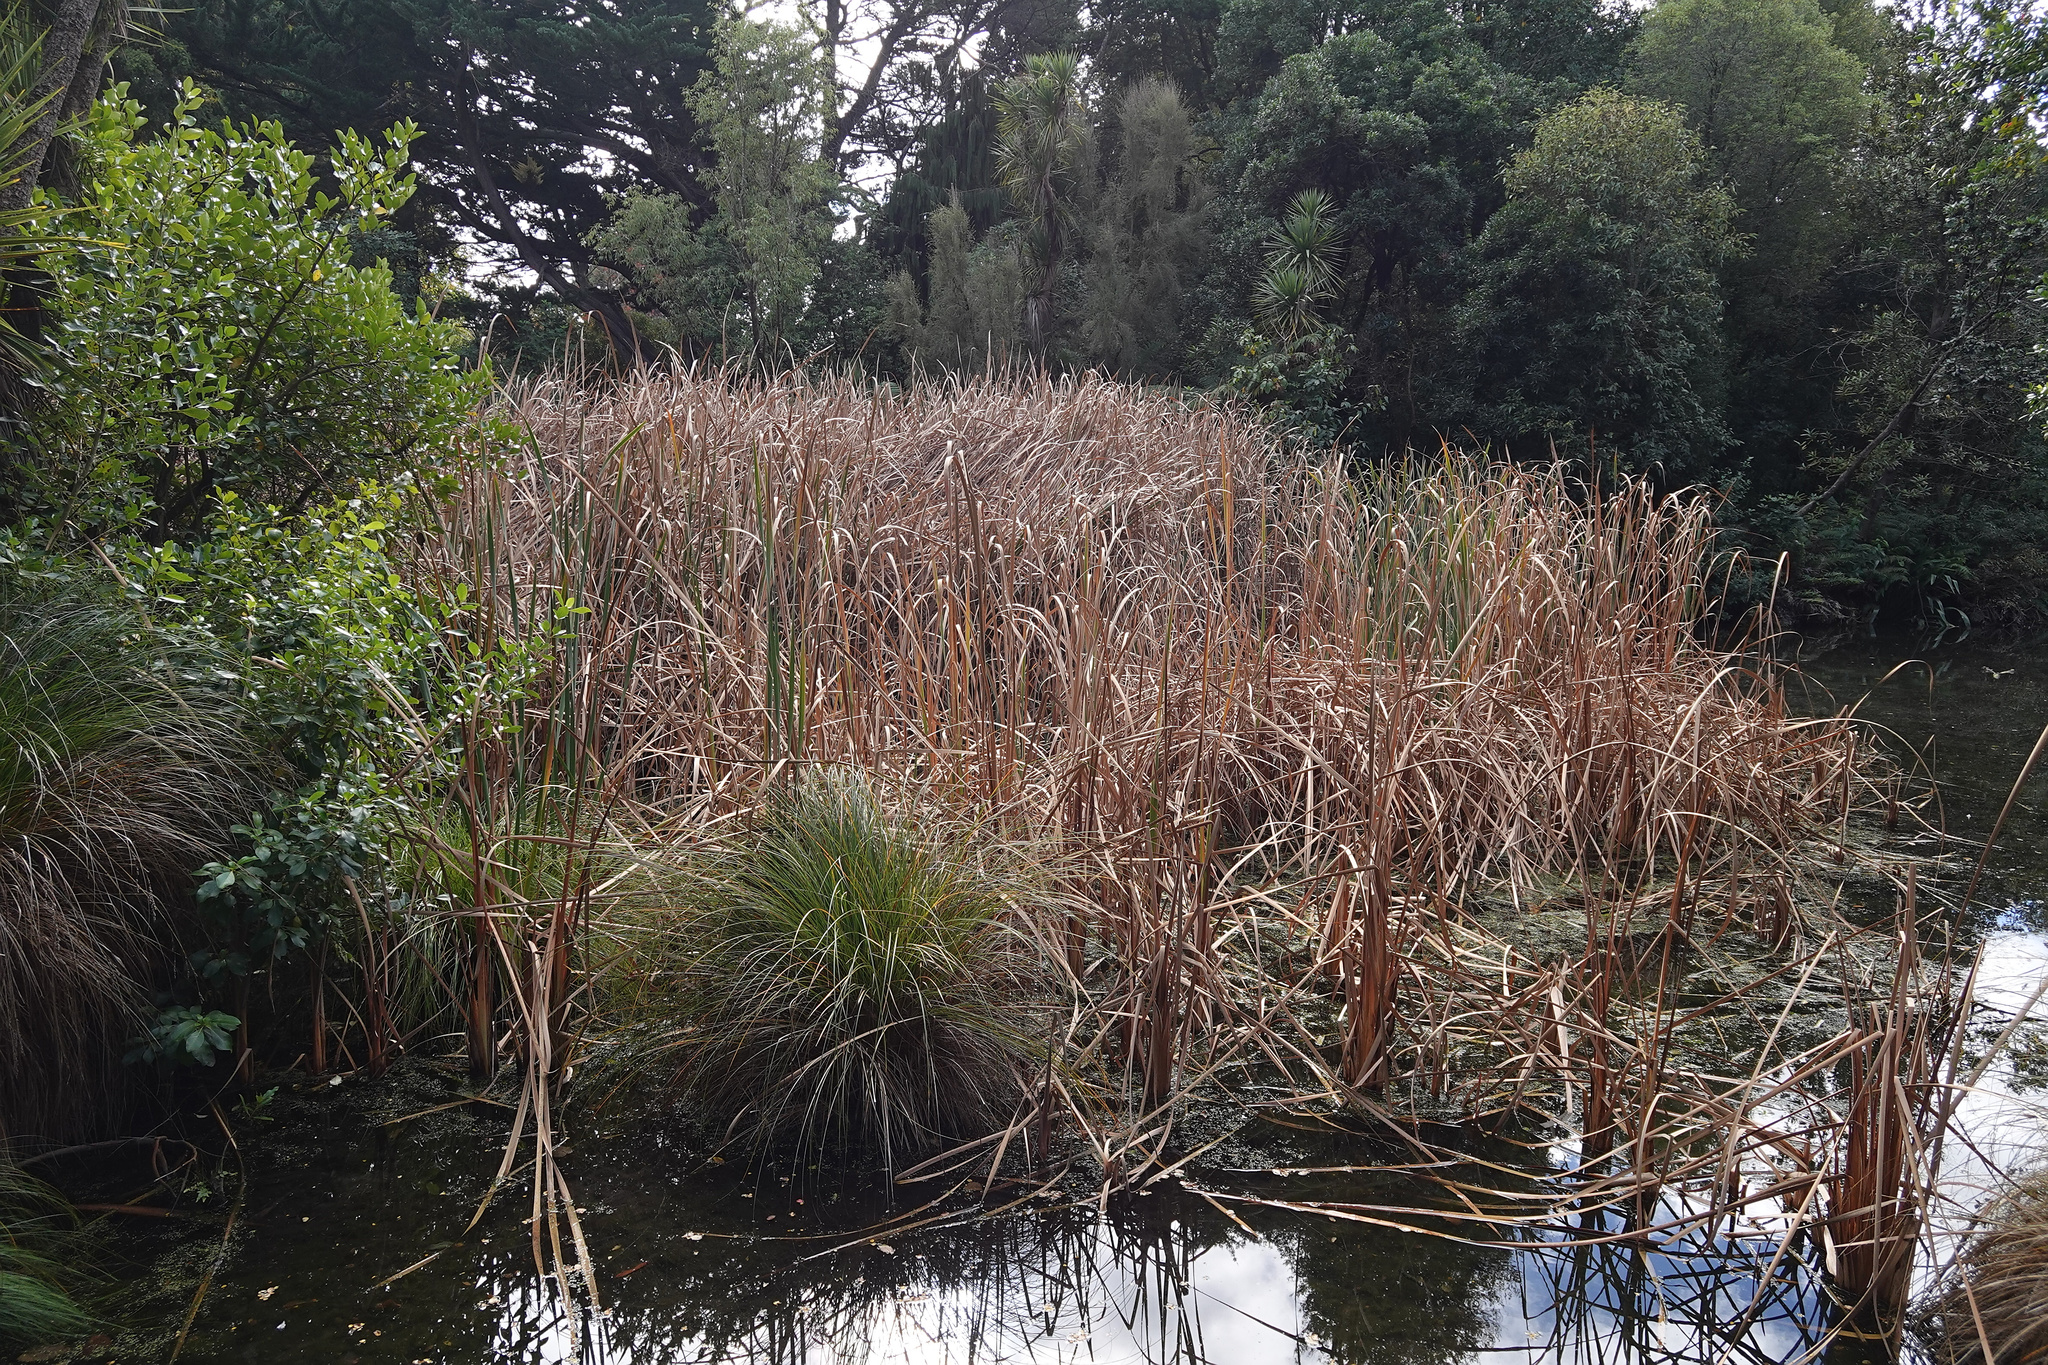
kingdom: Plantae
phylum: Tracheophyta
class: Liliopsida
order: Poales
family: Typhaceae
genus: Typha
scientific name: Typha orientalis
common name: Bullrush
